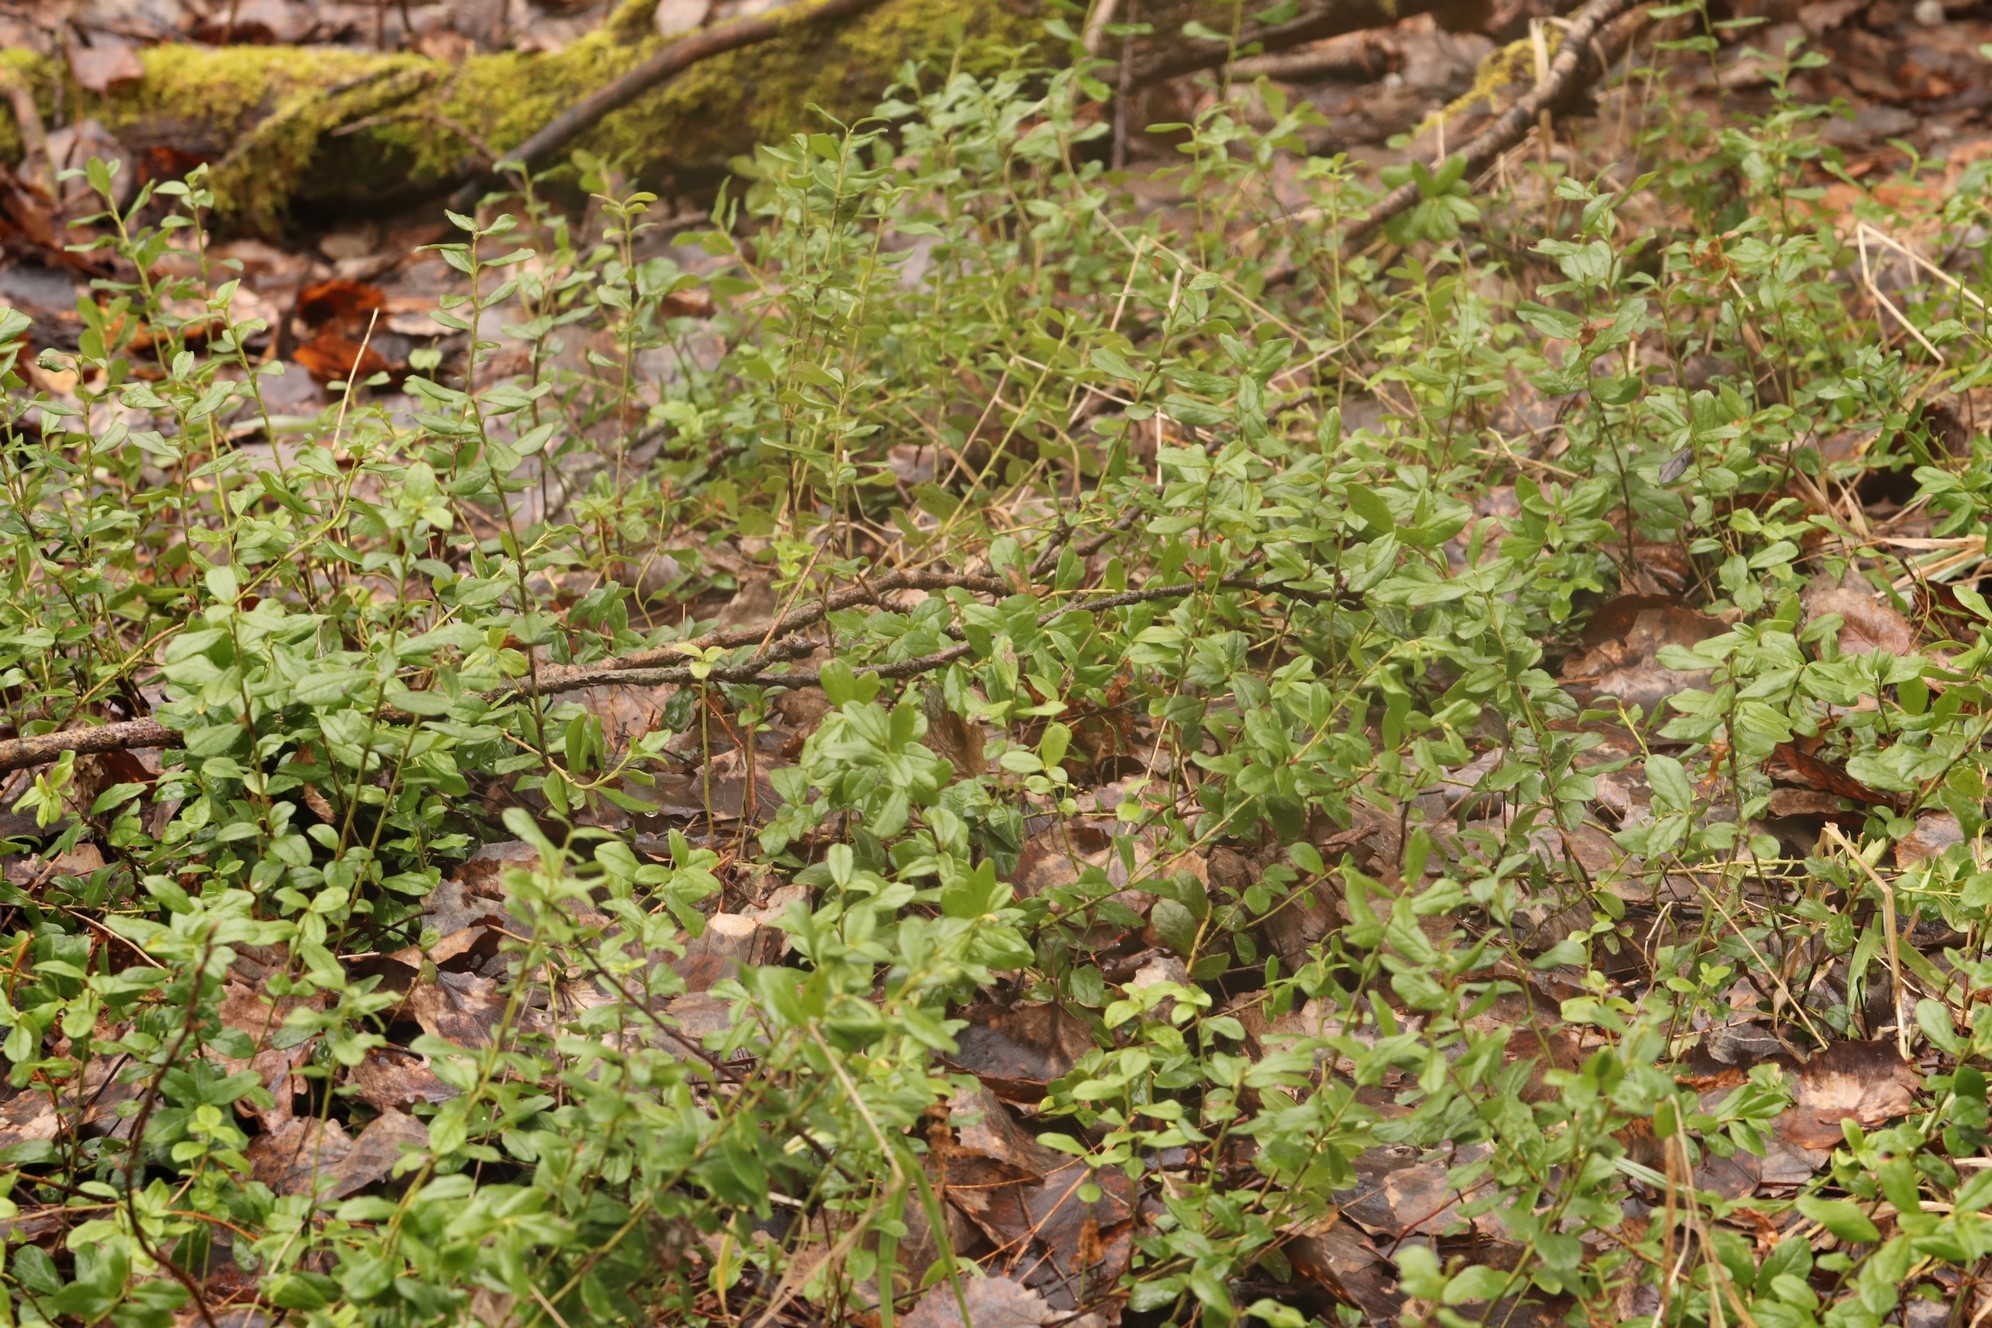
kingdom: Plantae
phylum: Tracheophyta
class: Magnoliopsida
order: Ericales
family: Ericaceae
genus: Vaccinium
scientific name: Vaccinium vitis-idaea
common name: Cowberry
